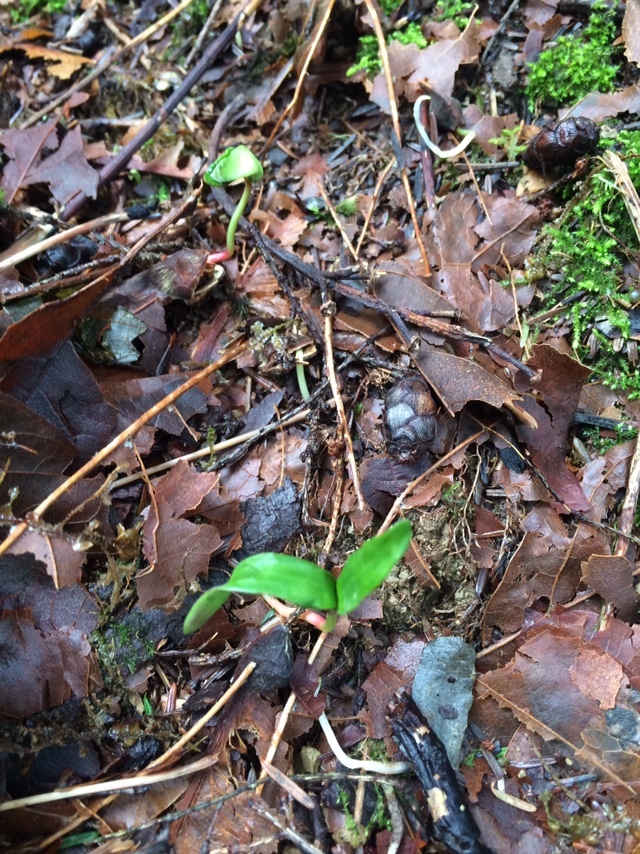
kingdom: Plantae
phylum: Tracheophyta
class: Magnoliopsida
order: Sapindales
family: Sapindaceae
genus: Acer
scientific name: Acer macrophyllum
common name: Oregon maple
